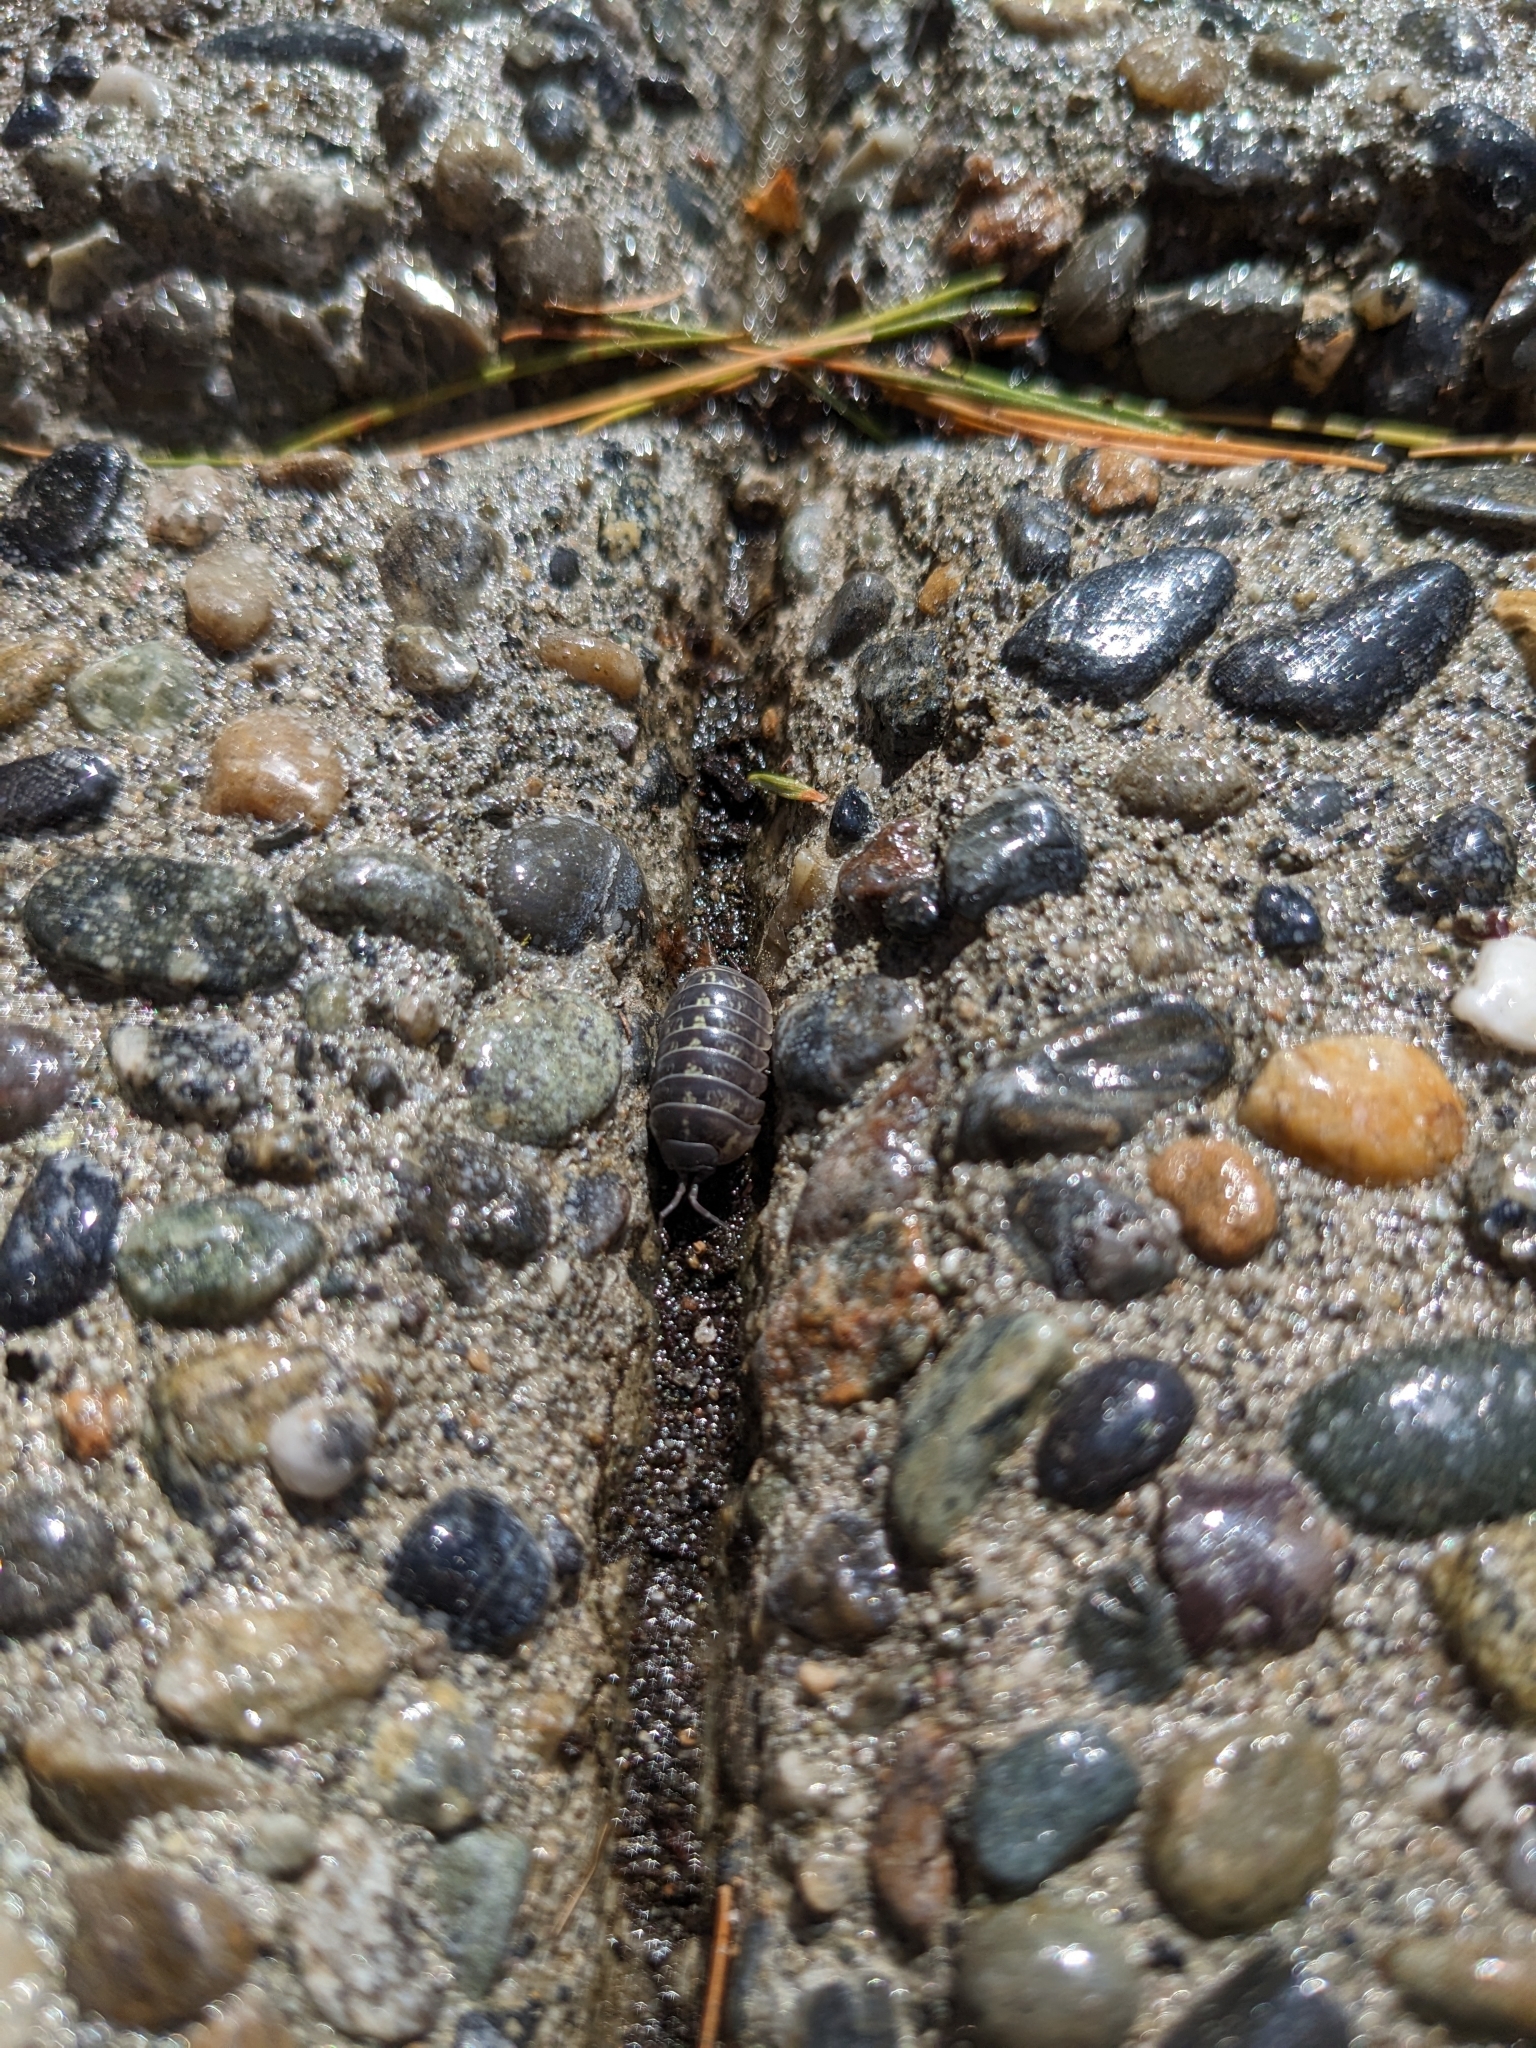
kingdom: Animalia
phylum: Arthropoda
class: Malacostraca
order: Isopoda
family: Armadillidiidae
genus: Armadillidium
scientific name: Armadillidium vulgare
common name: Common pill woodlouse
